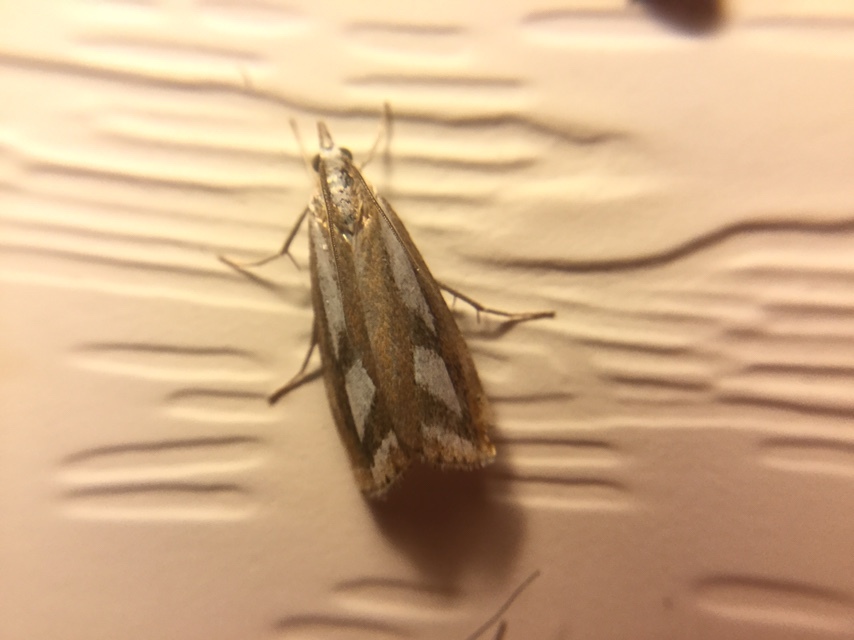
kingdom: Animalia
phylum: Arthropoda
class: Insecta
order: Lepidoptera
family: Crambidae
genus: Catoptria
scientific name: Catoptria latiradiellus
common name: Two-banded catoptria moth
